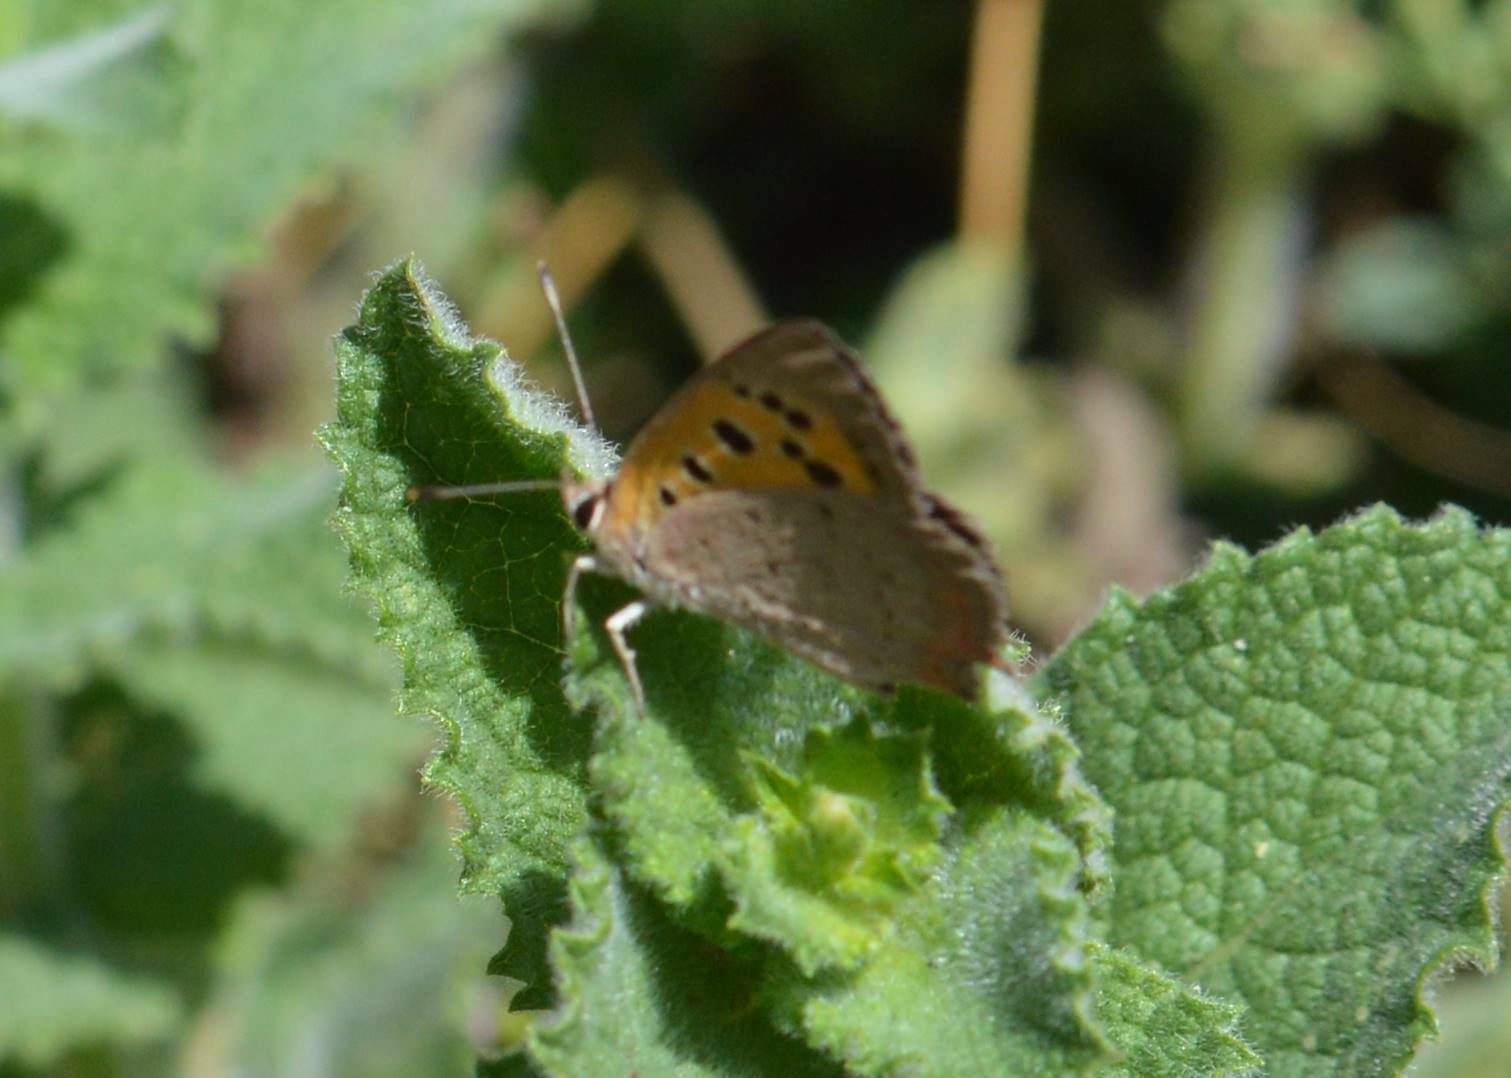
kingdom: Animalia
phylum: Arthropoda
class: Insecta
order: Lepidoptera
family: Lycaenidae
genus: Lycaena
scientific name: Lycaena phlaeas
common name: Small copper
